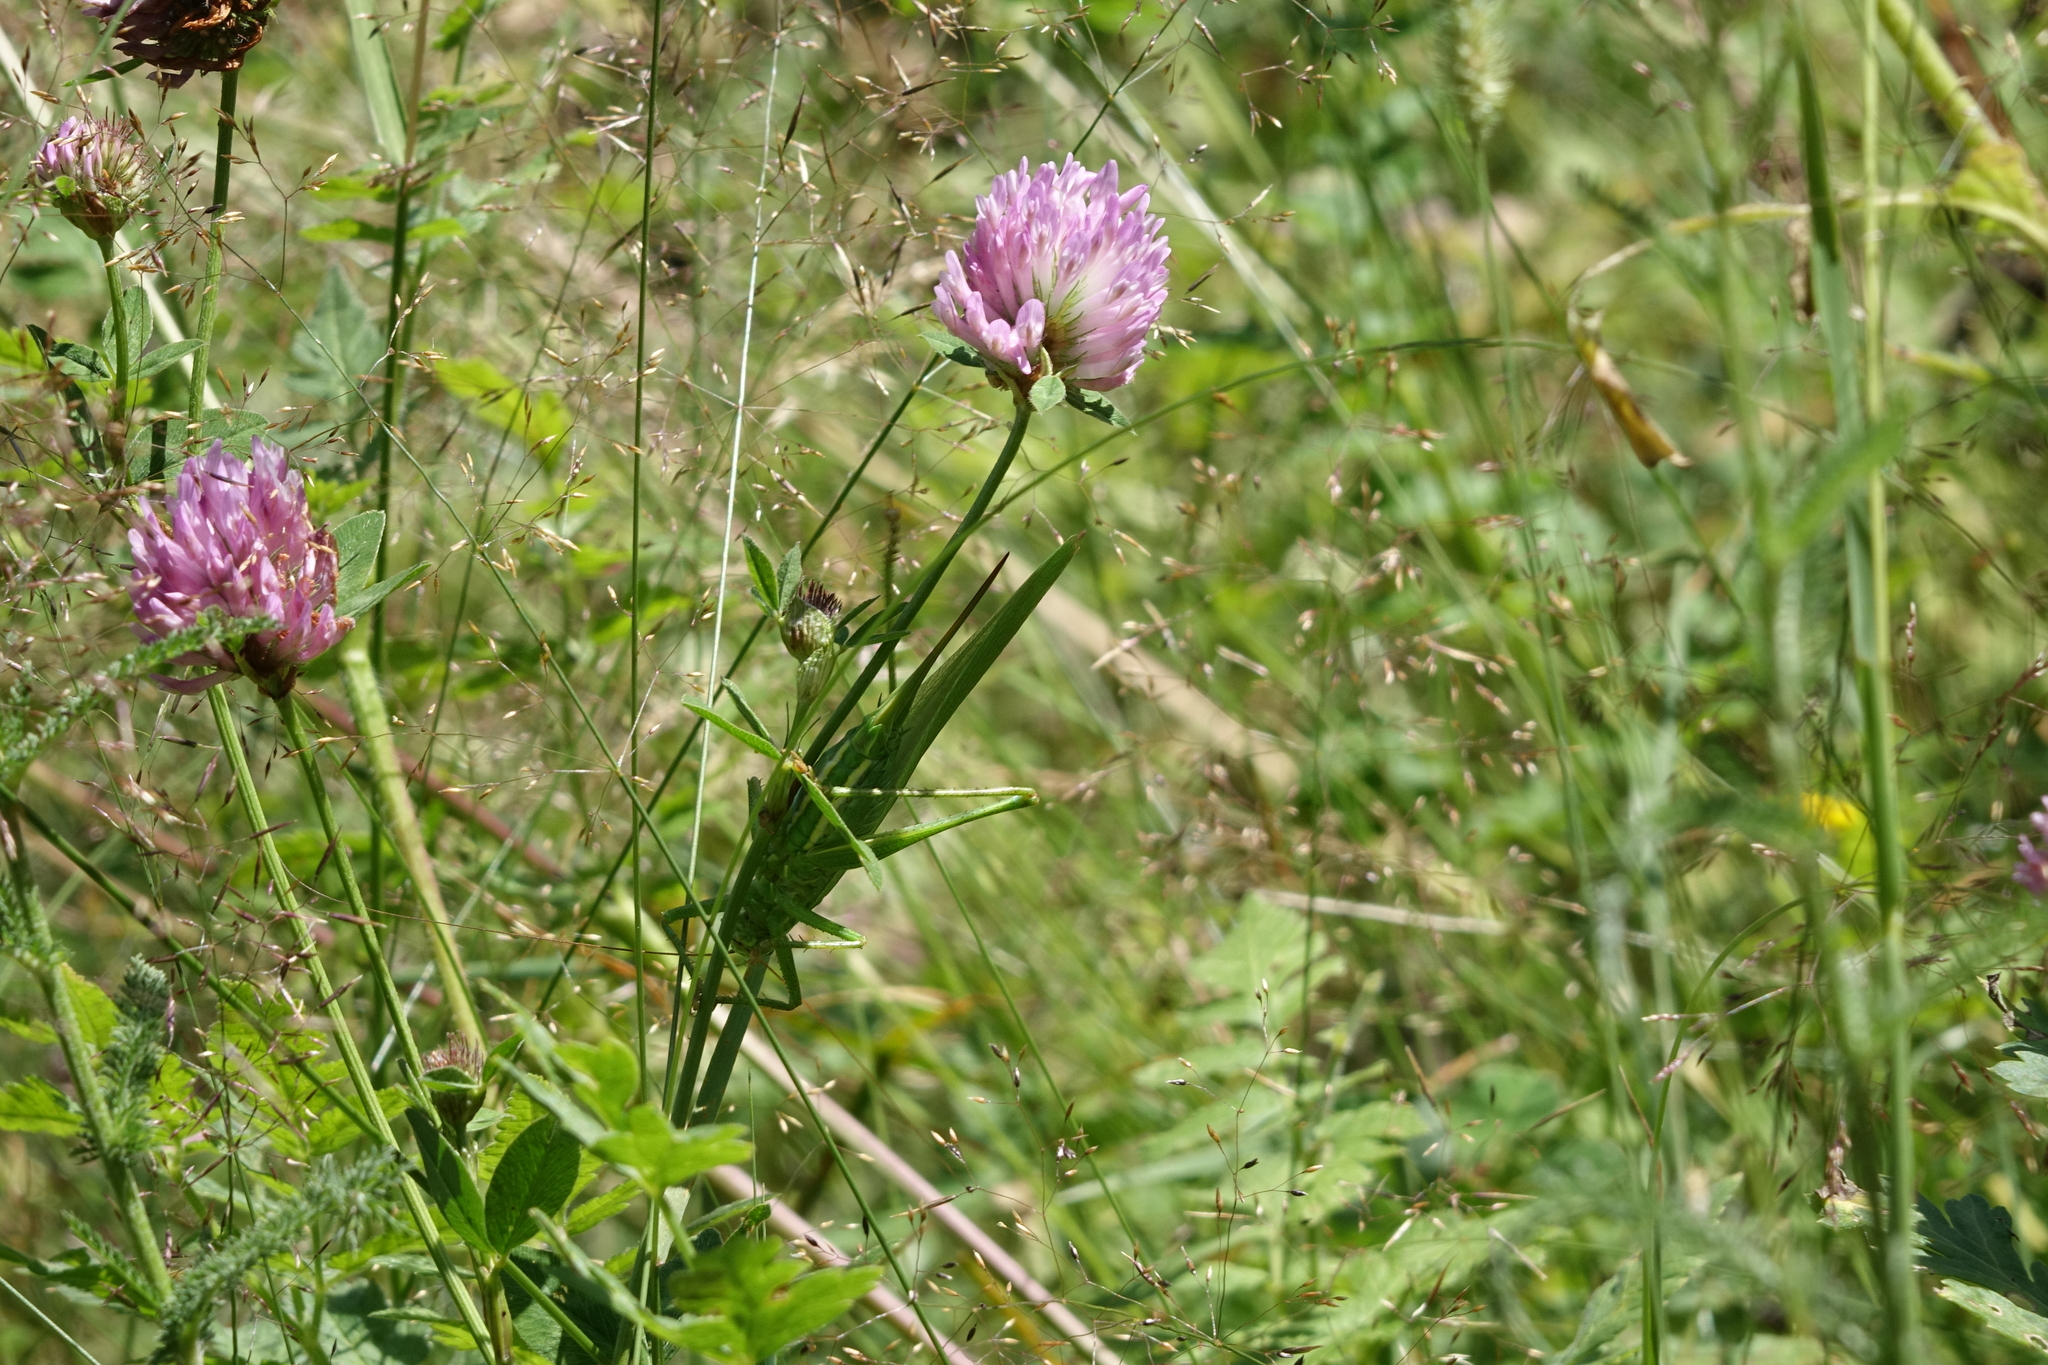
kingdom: Plantae
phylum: Tracheophyta
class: Magnoliopsida
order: Fabales
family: Fabaceae
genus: Trifolium
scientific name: Trifolium pratense
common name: Red clover
